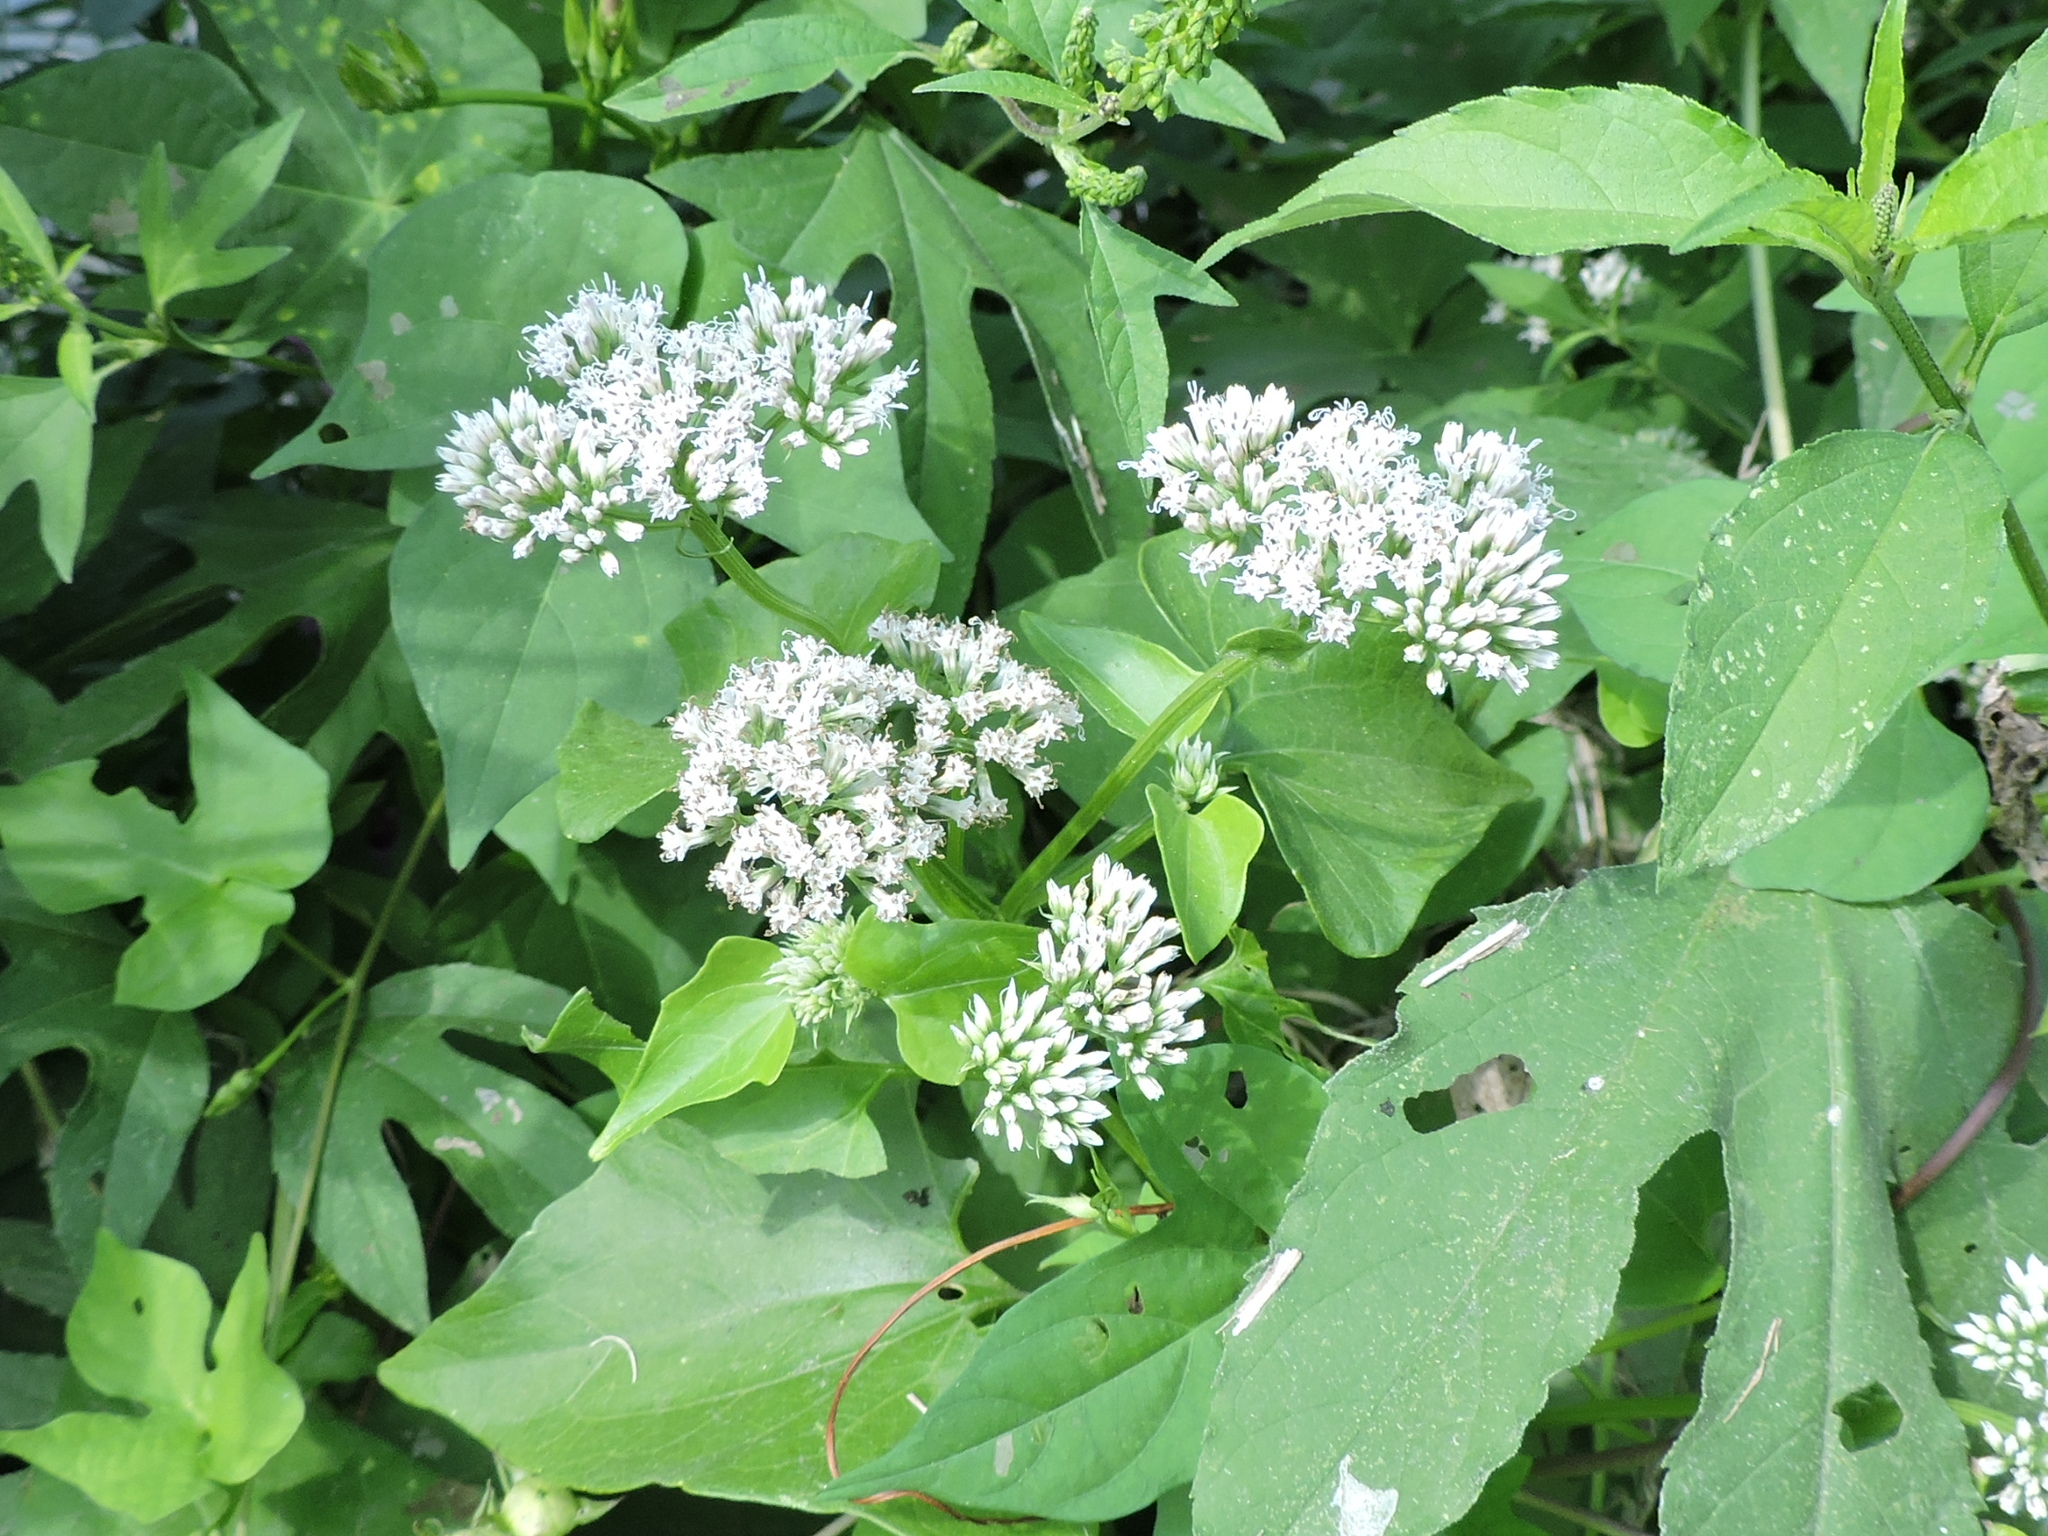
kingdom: Plantae
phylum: Tracheophyta
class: Magnoliopsida
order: Asterales
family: Asteraceae
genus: Mikania
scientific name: Mikania scandens
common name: Climbing hempvine
